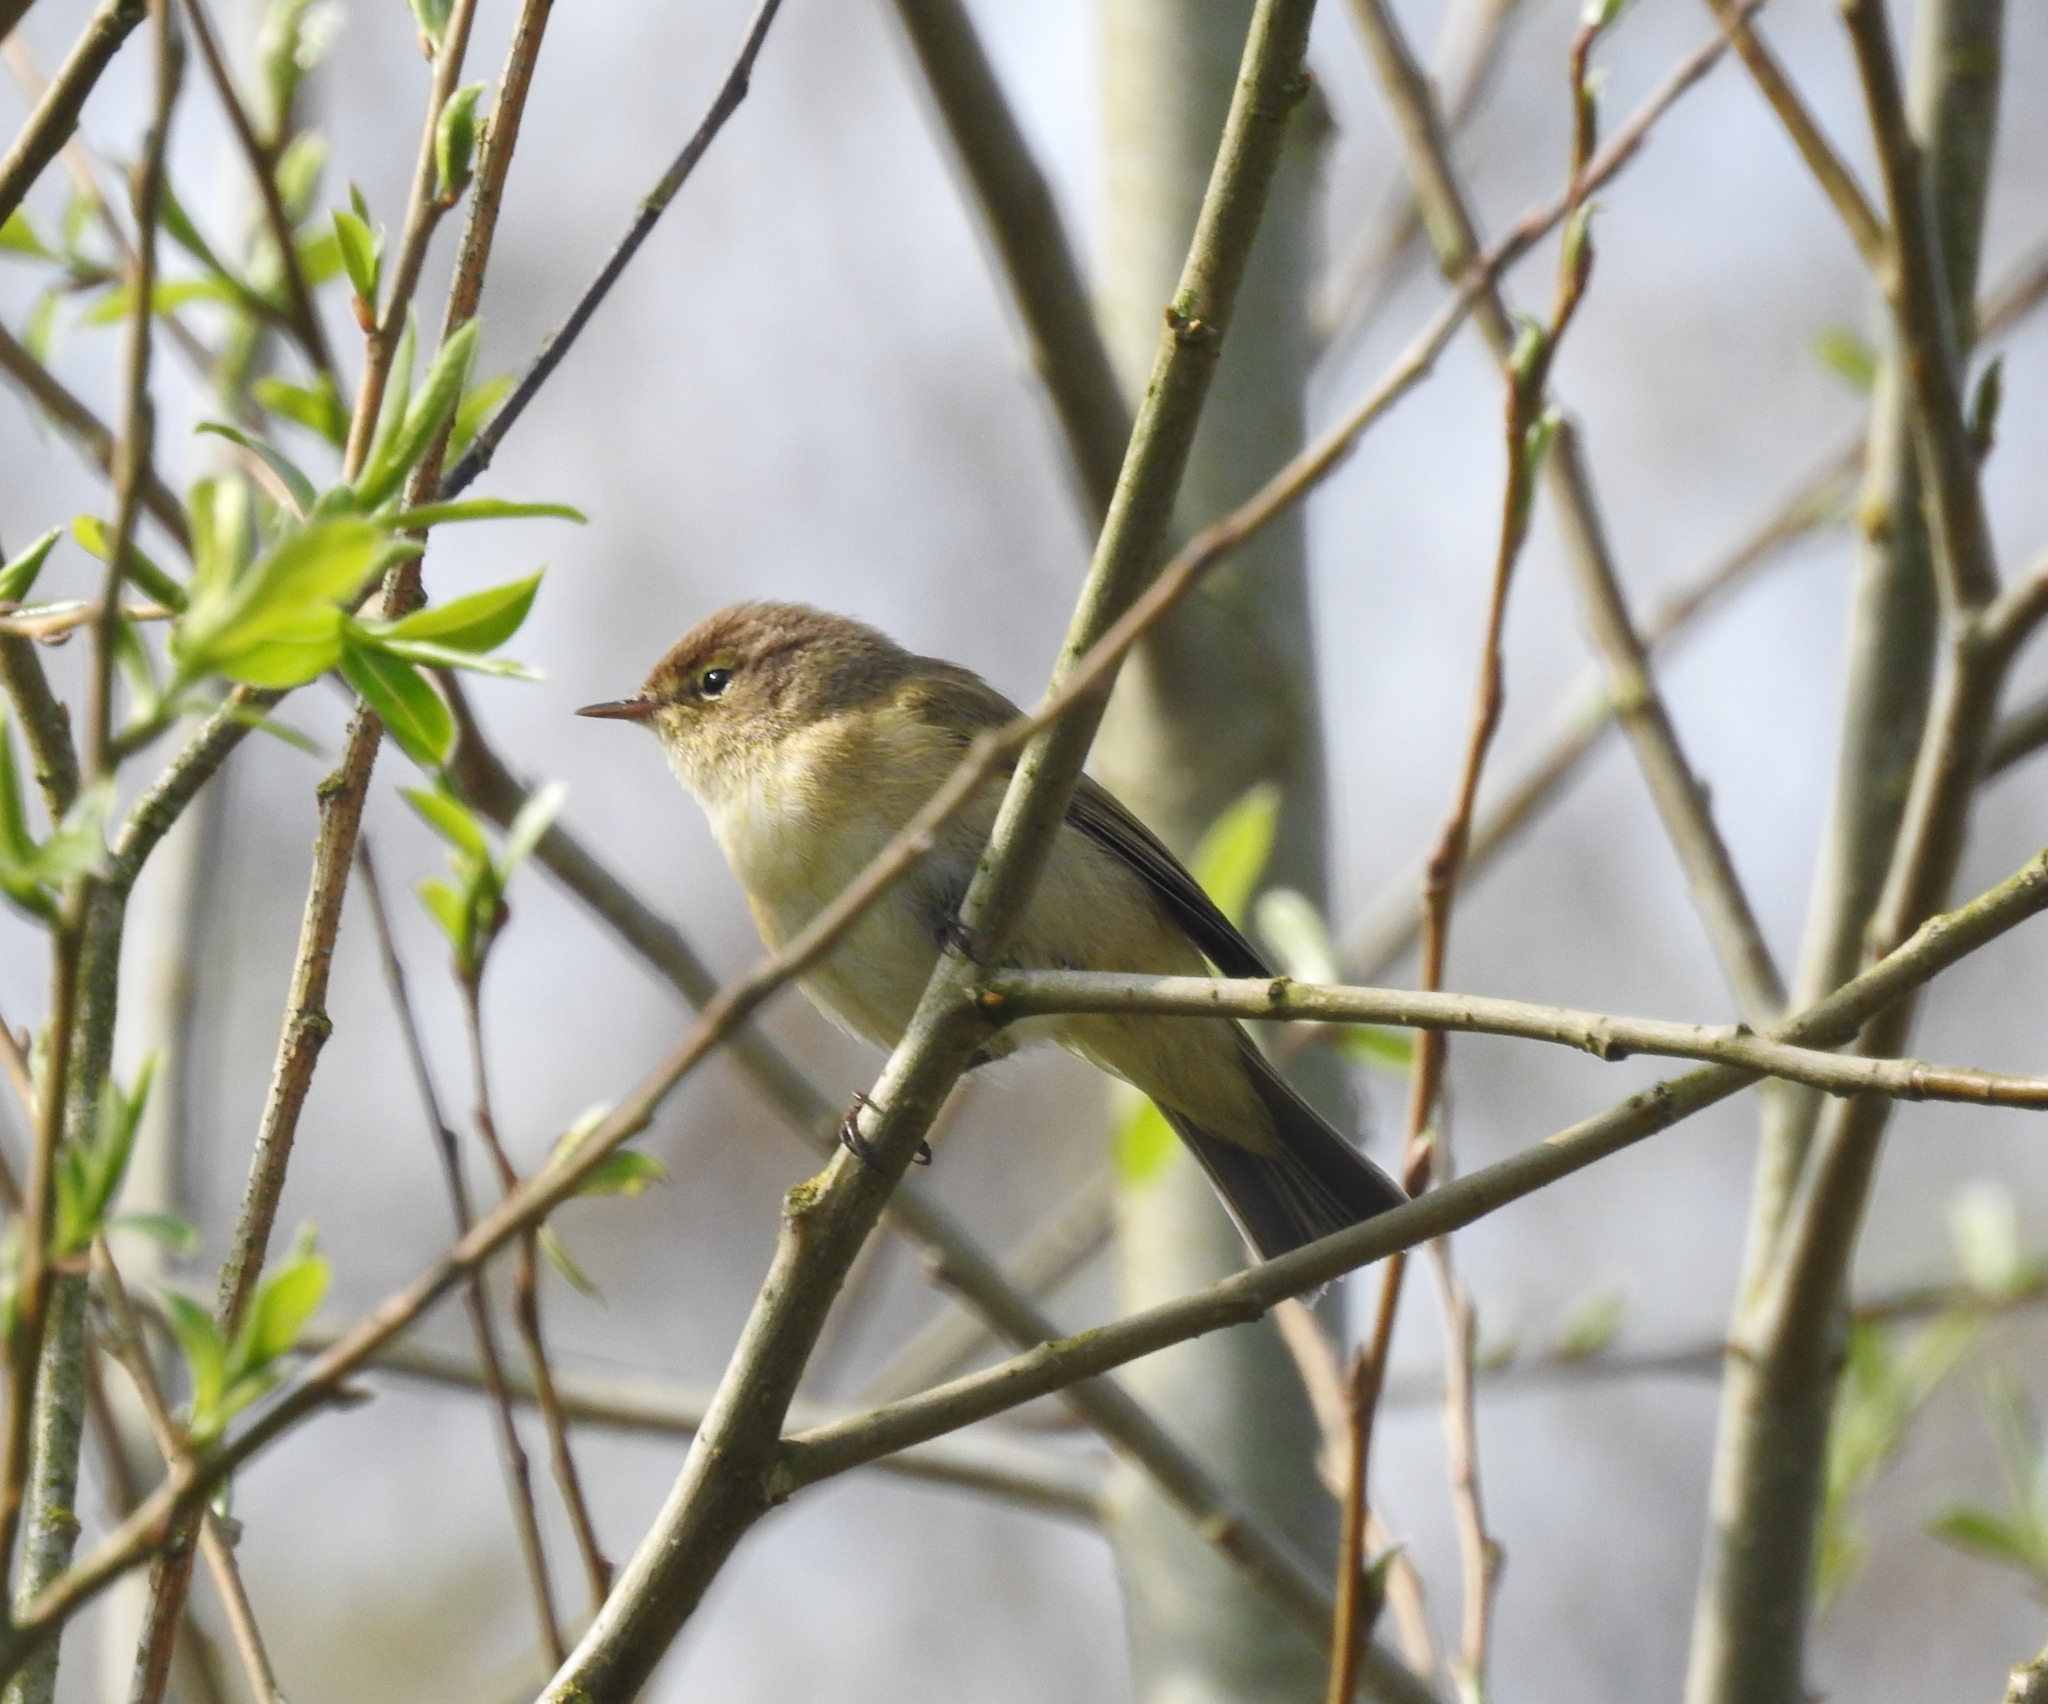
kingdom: Animalia
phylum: Chordata
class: Aves
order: Passeriformes
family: Phylloscopidae
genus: Phylloscopus
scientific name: Phylloscopus collybita
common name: Common chiffchaff
